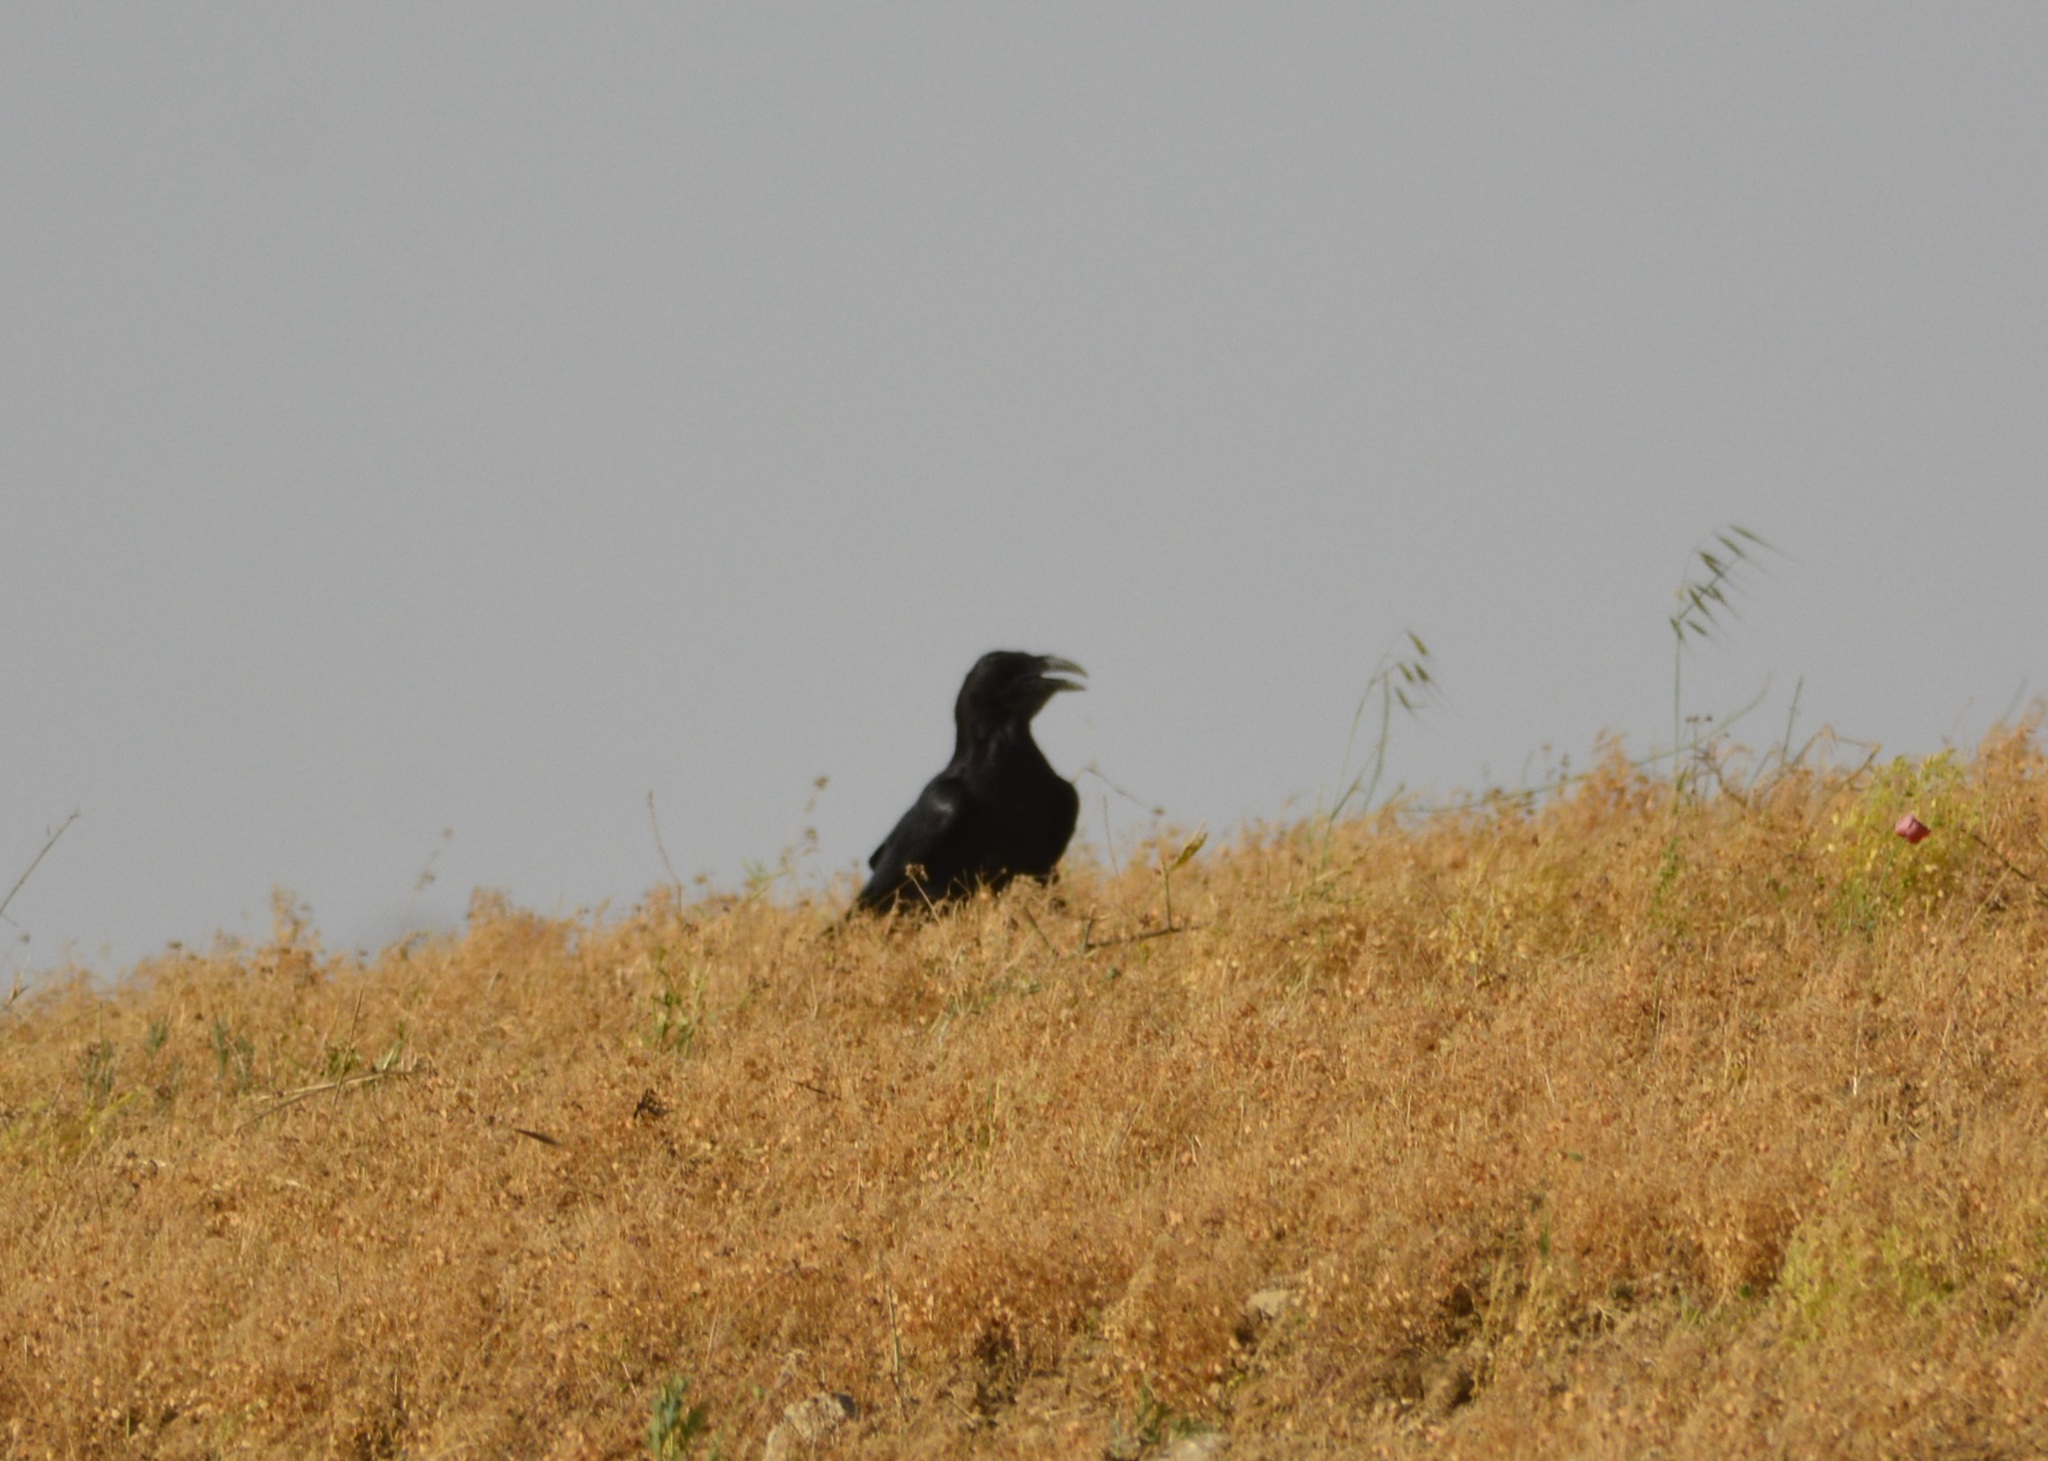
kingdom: Animalia
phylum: Chordata
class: Aves
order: Passeriformes
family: Corvidae
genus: Corvus
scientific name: Corvus corax
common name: Common raven
